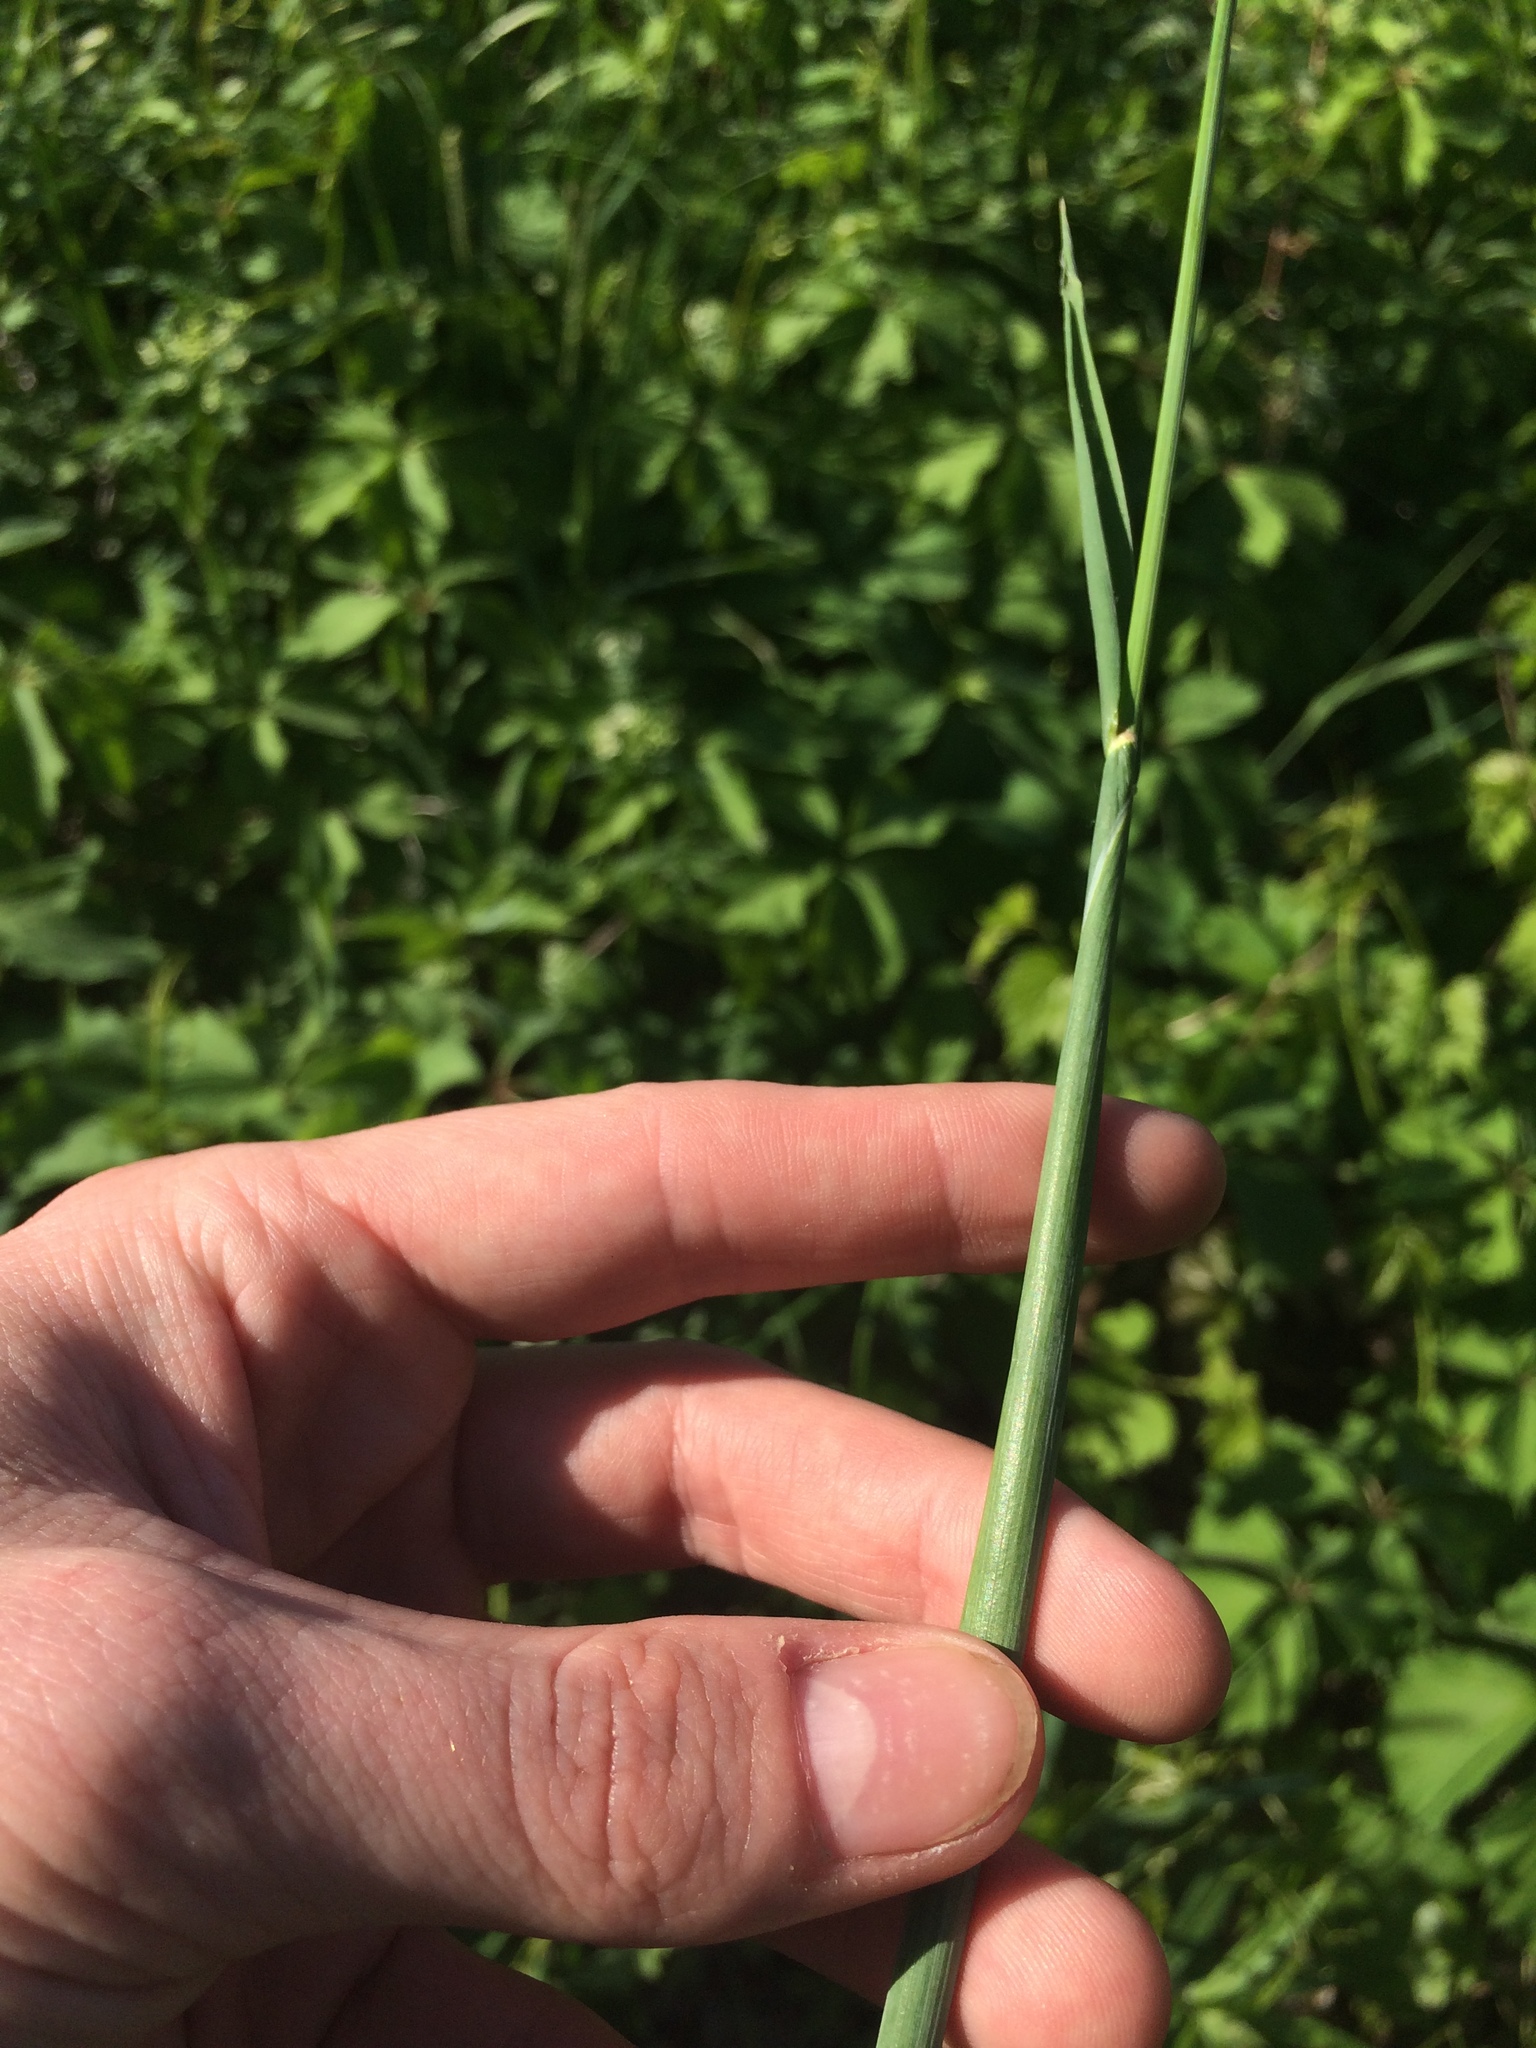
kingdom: Plantae
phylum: Tracheophyta
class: Liliopsida
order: Poales
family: Poaceae
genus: Alopecurus
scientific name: Alopecurus pratensis
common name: Meadow foxtail
